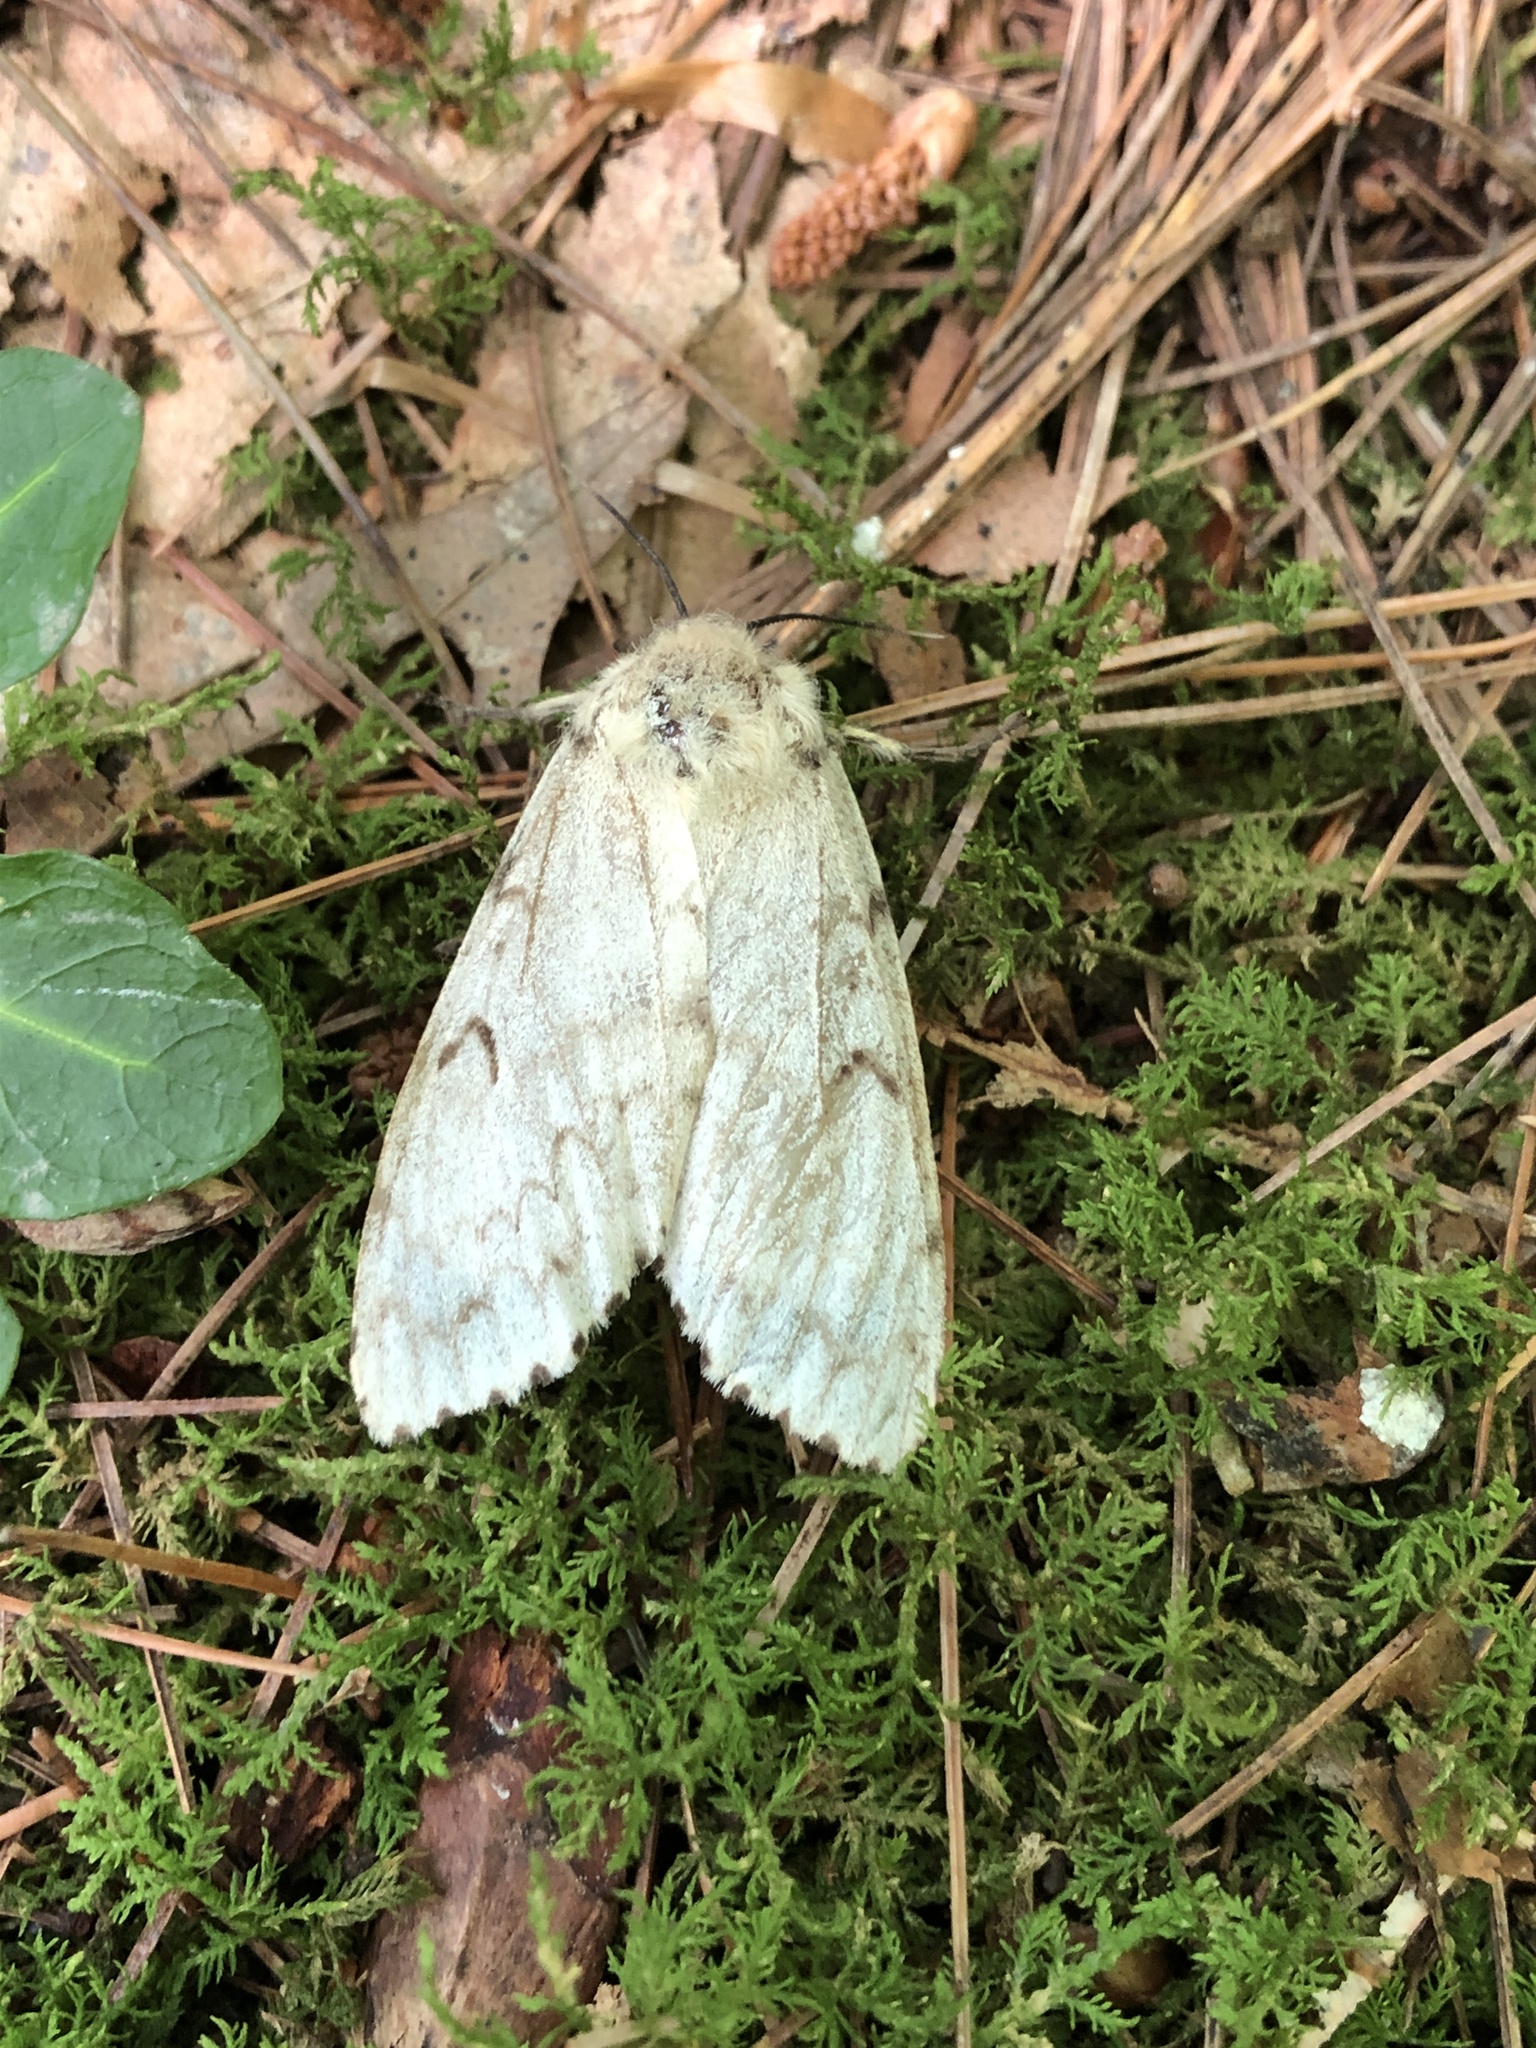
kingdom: Animalia
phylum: Arthropoda
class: Insecta
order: Lepidoptera
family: Erebidae
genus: Lymantria
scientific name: Lymantria dispar
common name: Gypsy moth
